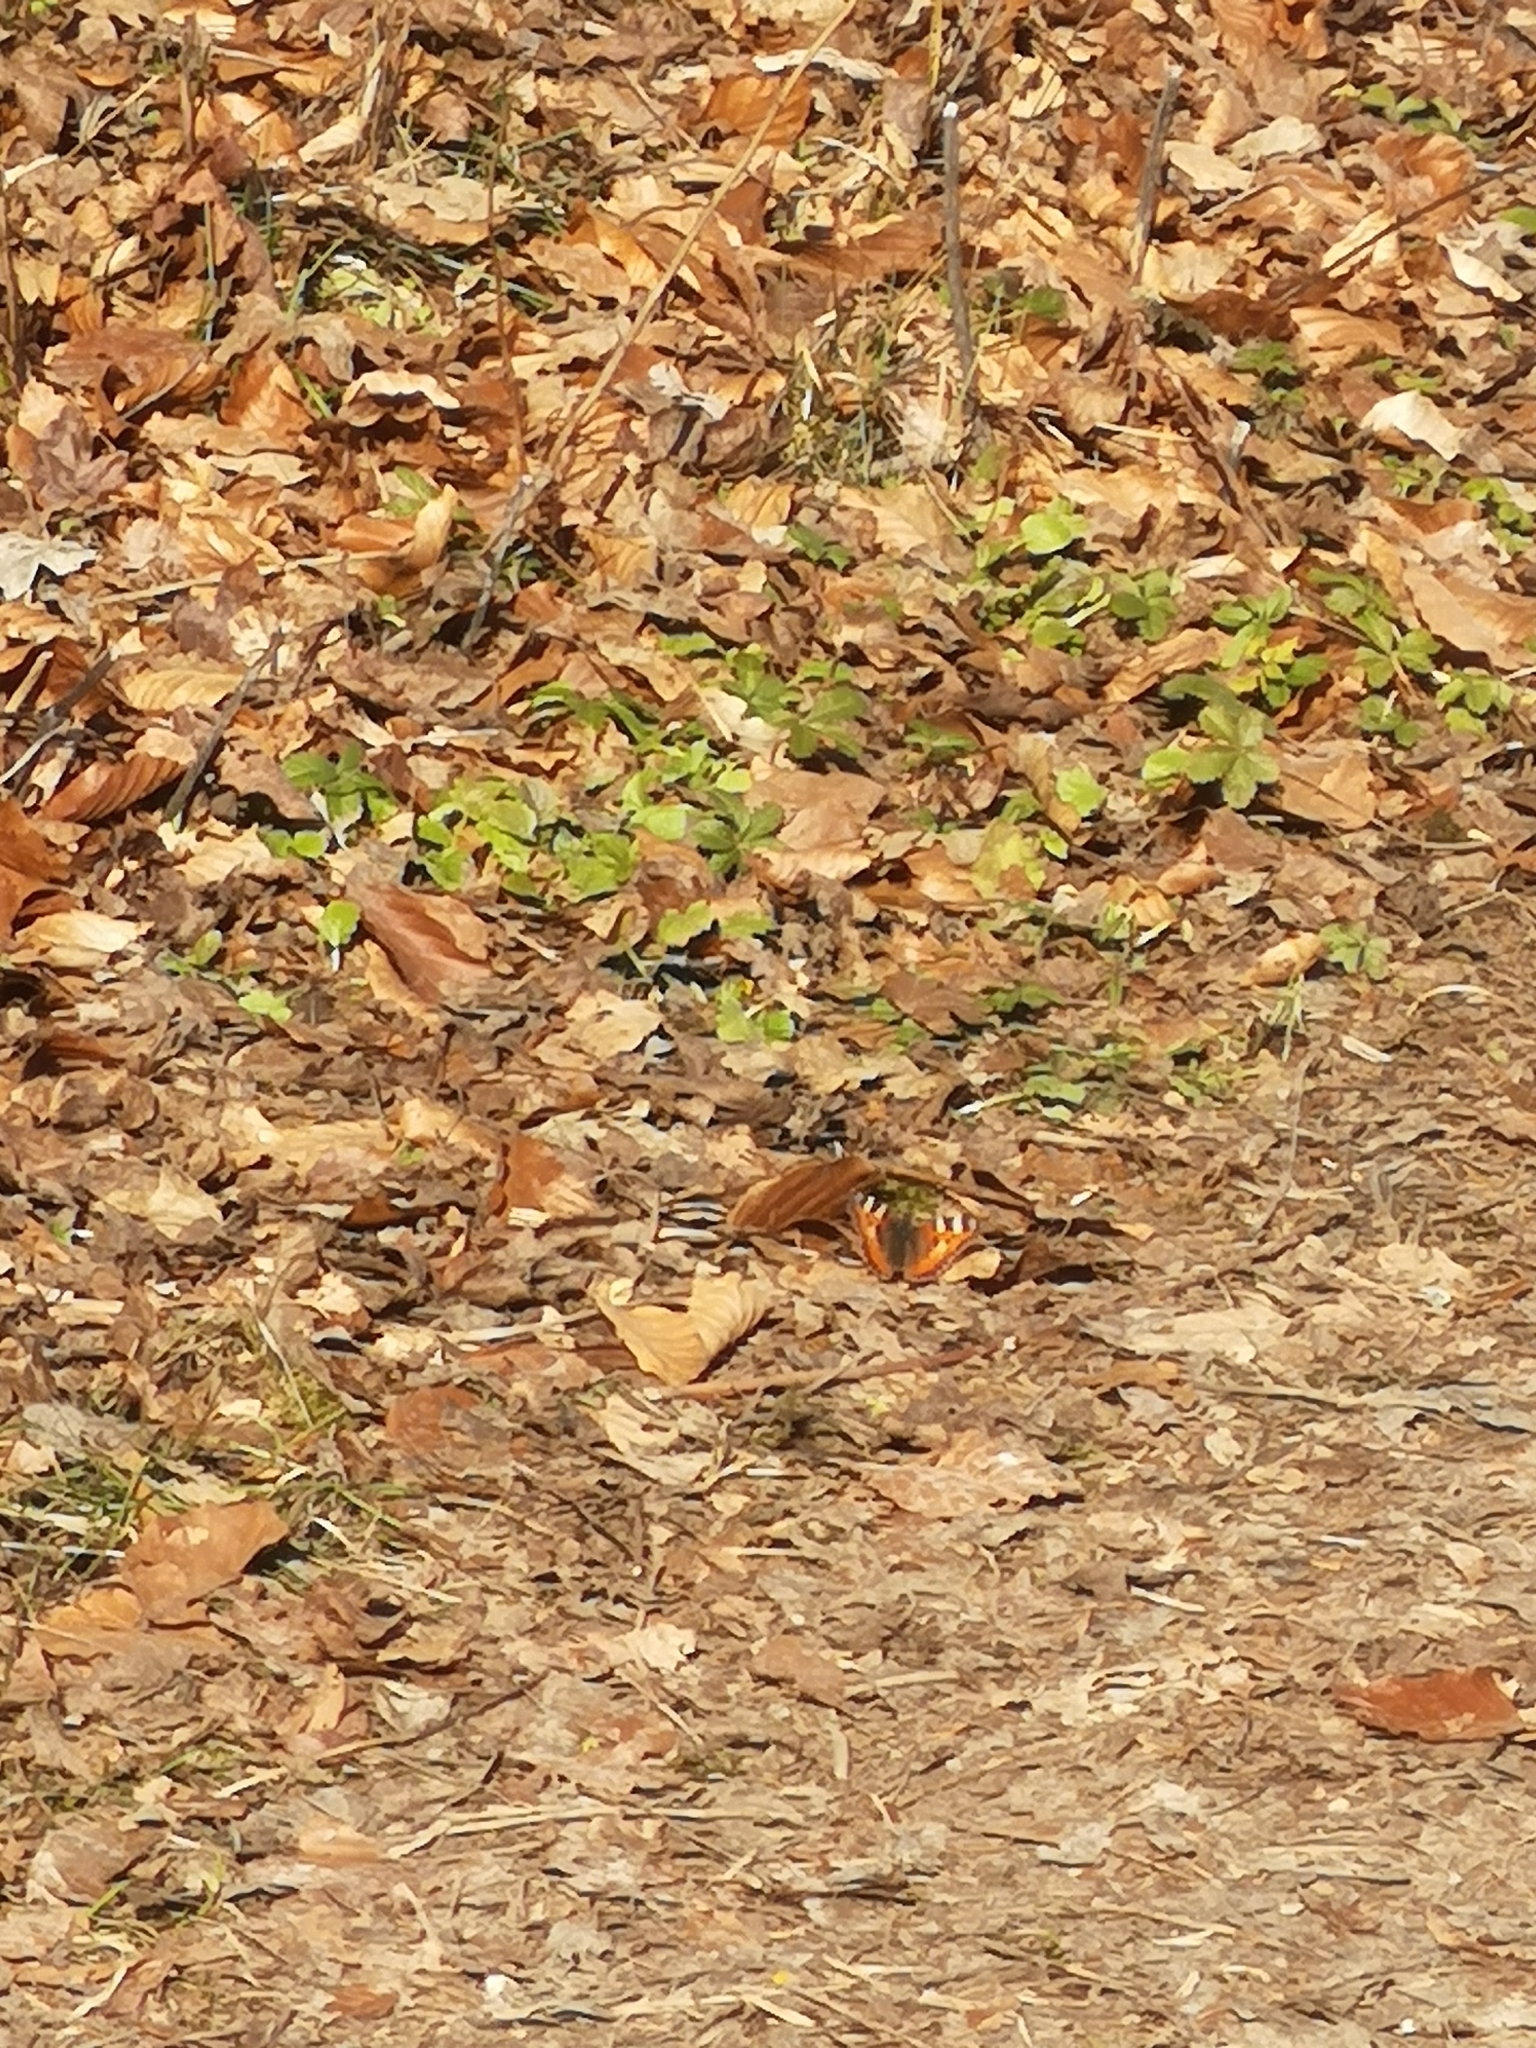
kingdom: Animalia
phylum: Arthropoda
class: Insecta
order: Lepidoptera
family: Nymphalidae
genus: Aglais
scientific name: Aglais urticae
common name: Small tortoiseshell
